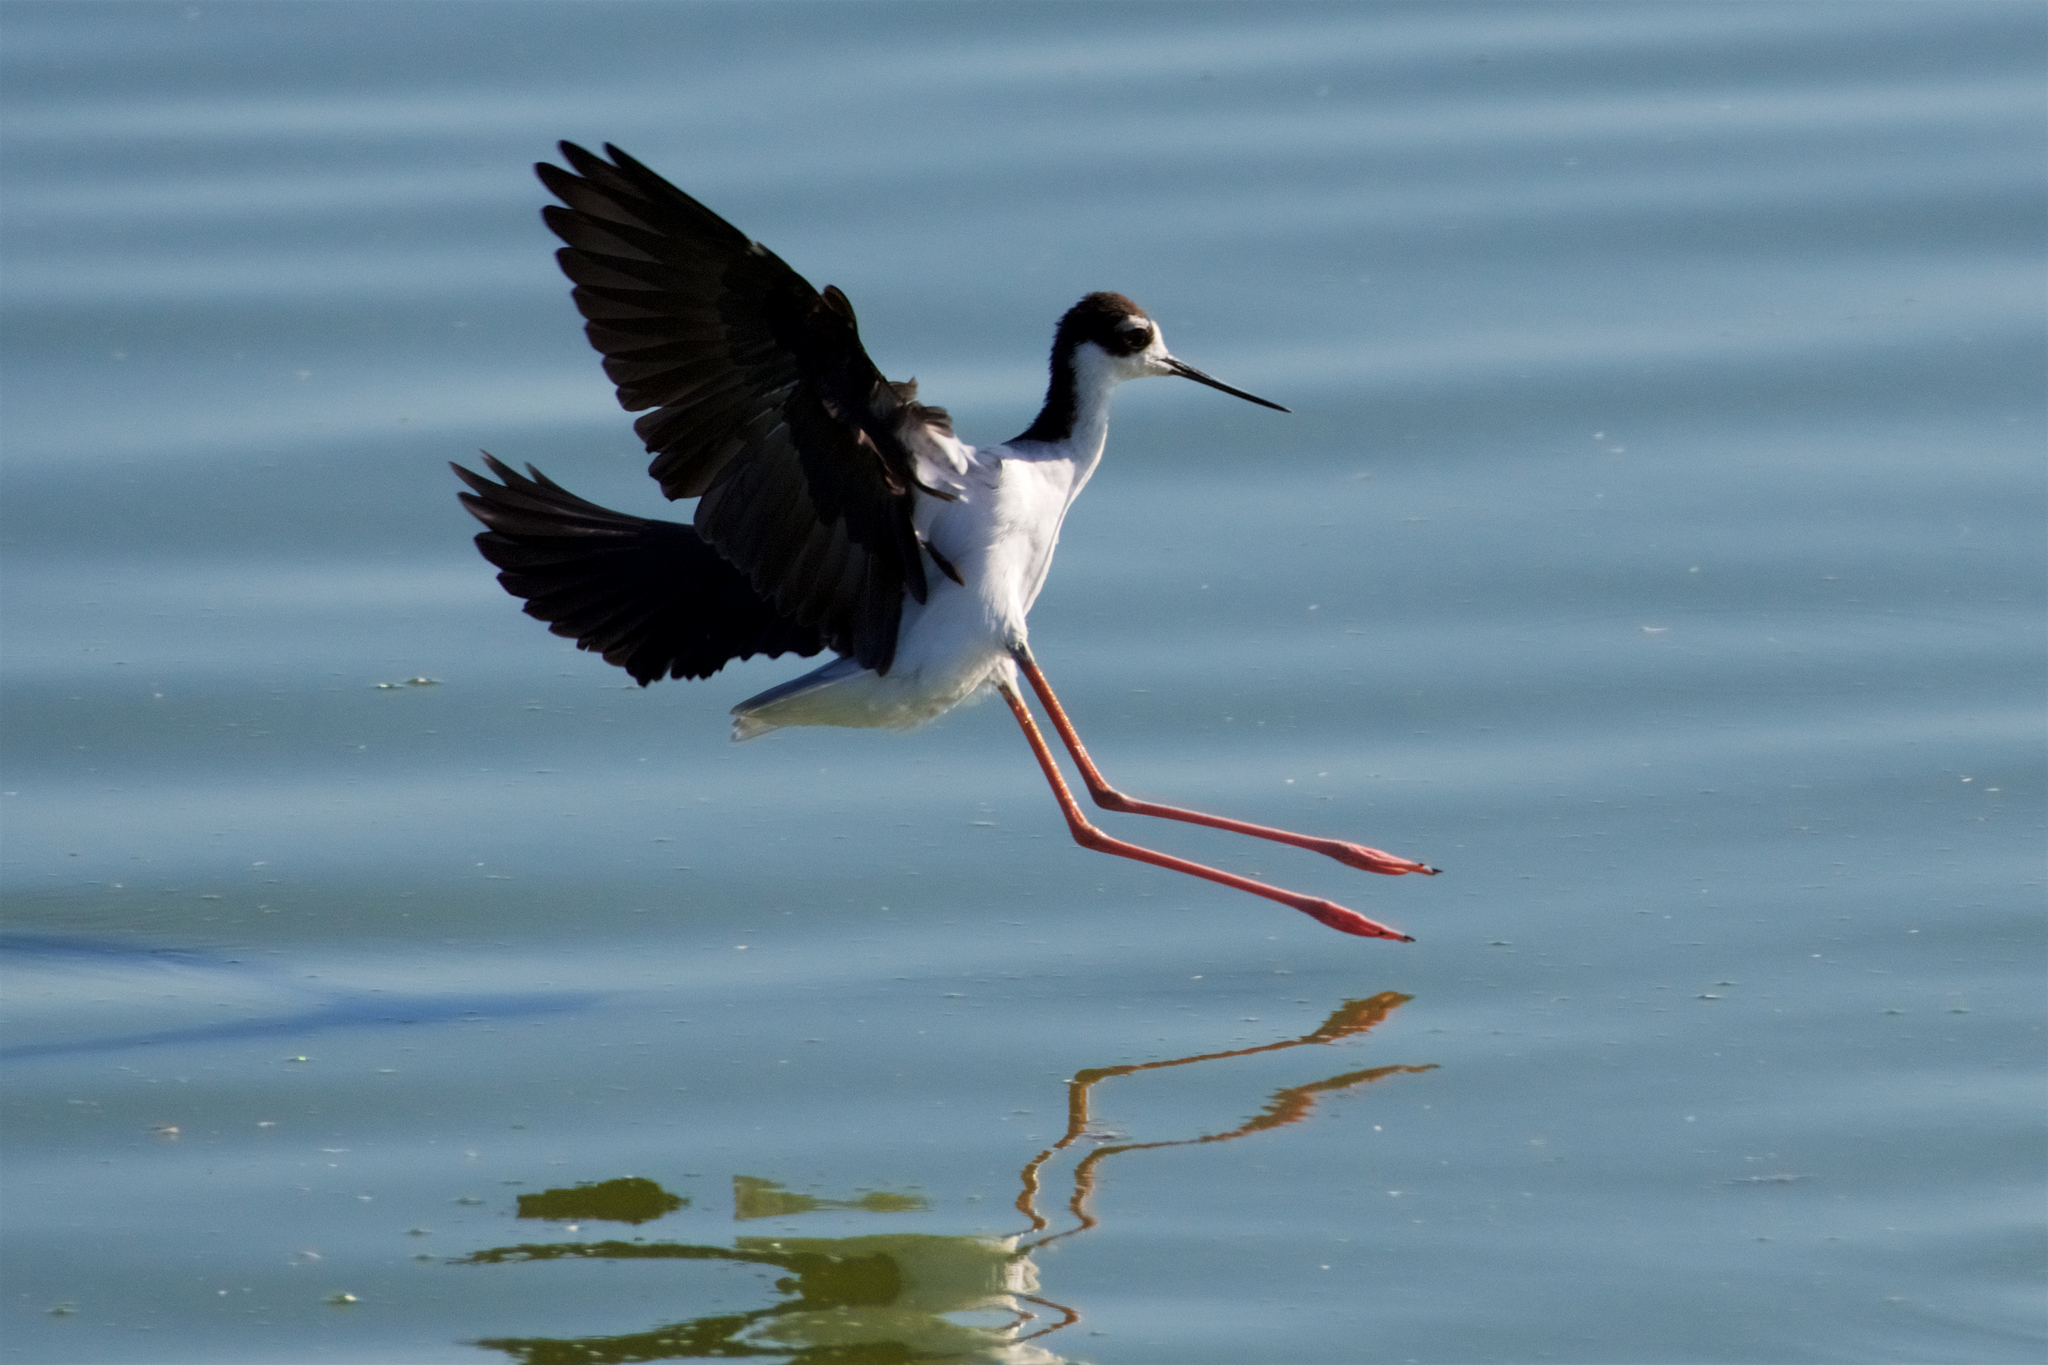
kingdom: Animalia
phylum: Chordata
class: Aves
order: Charadriiformes
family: Recurvirostridae
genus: Himantopus
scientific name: Himantopus mexicanus
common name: Black-necked stilt
